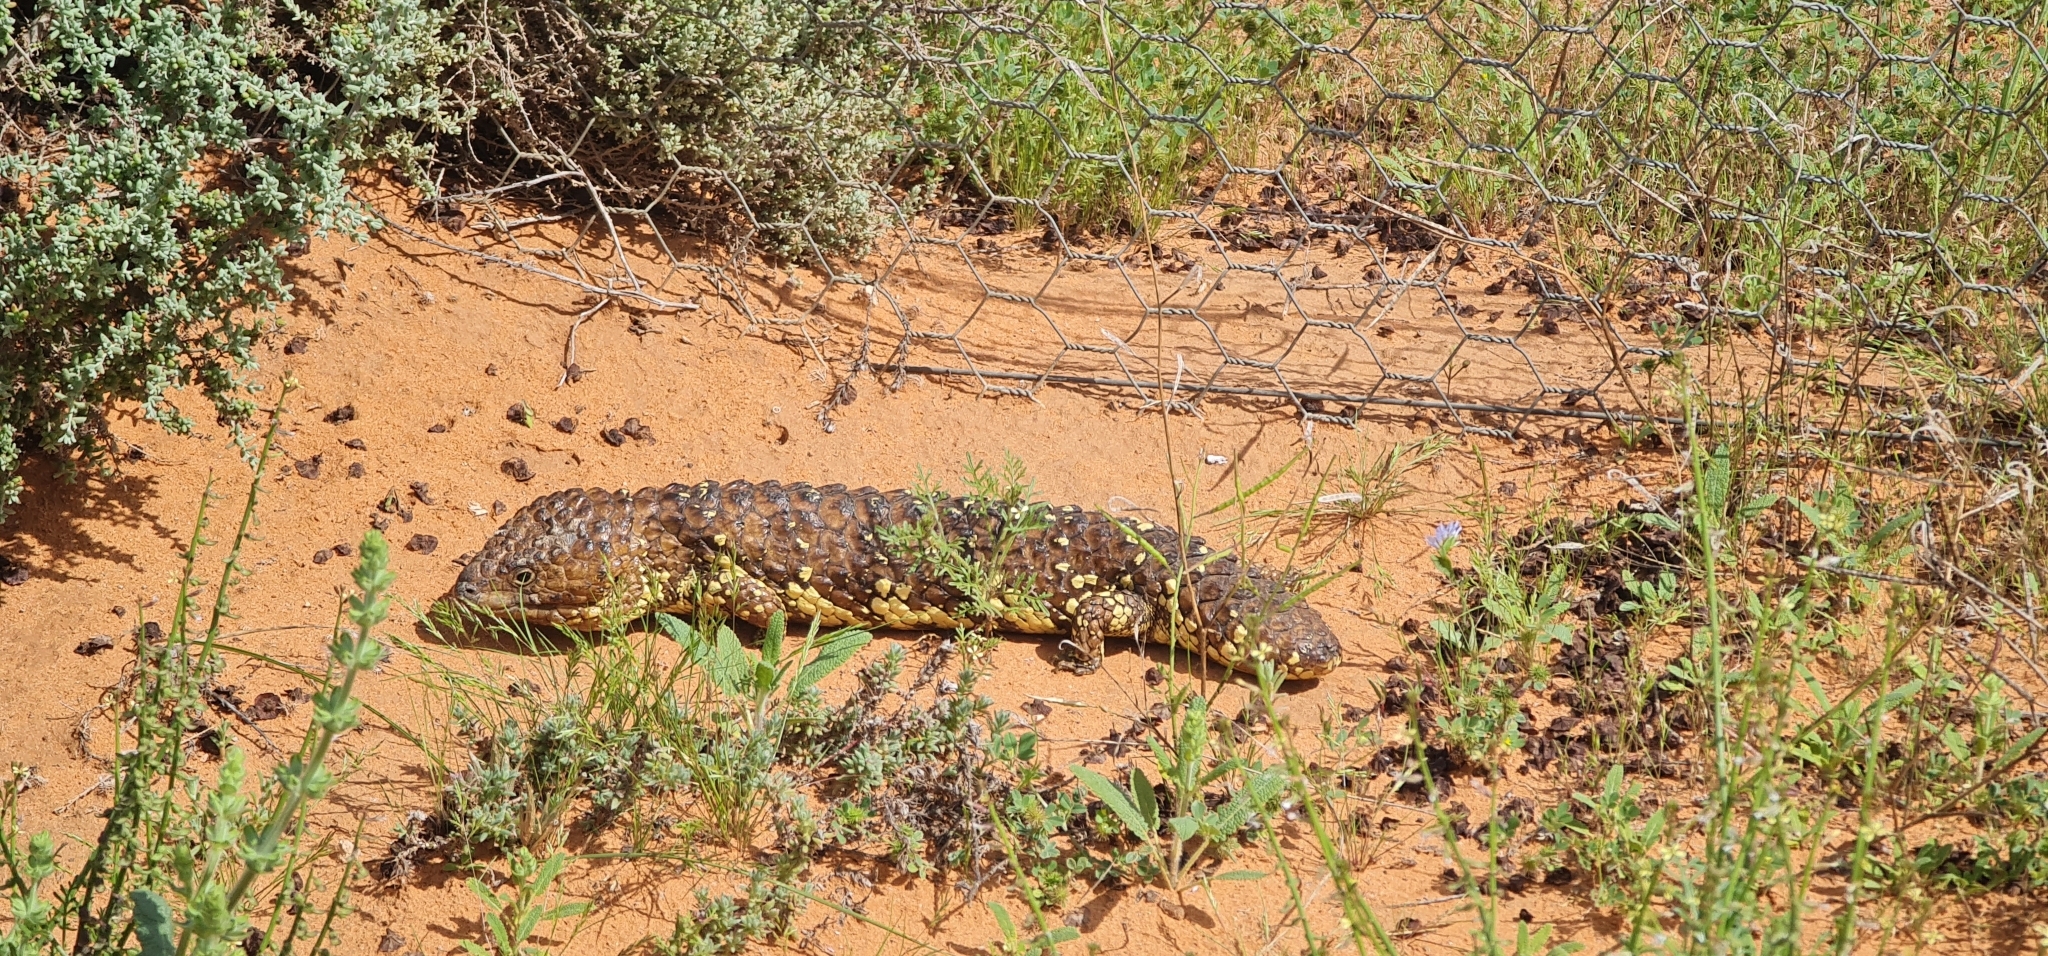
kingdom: Animalia
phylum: Chordata
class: Squamata
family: Scincidae
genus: Tiliqua
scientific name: Tiliqua rugosa
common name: Pinecone lizard
